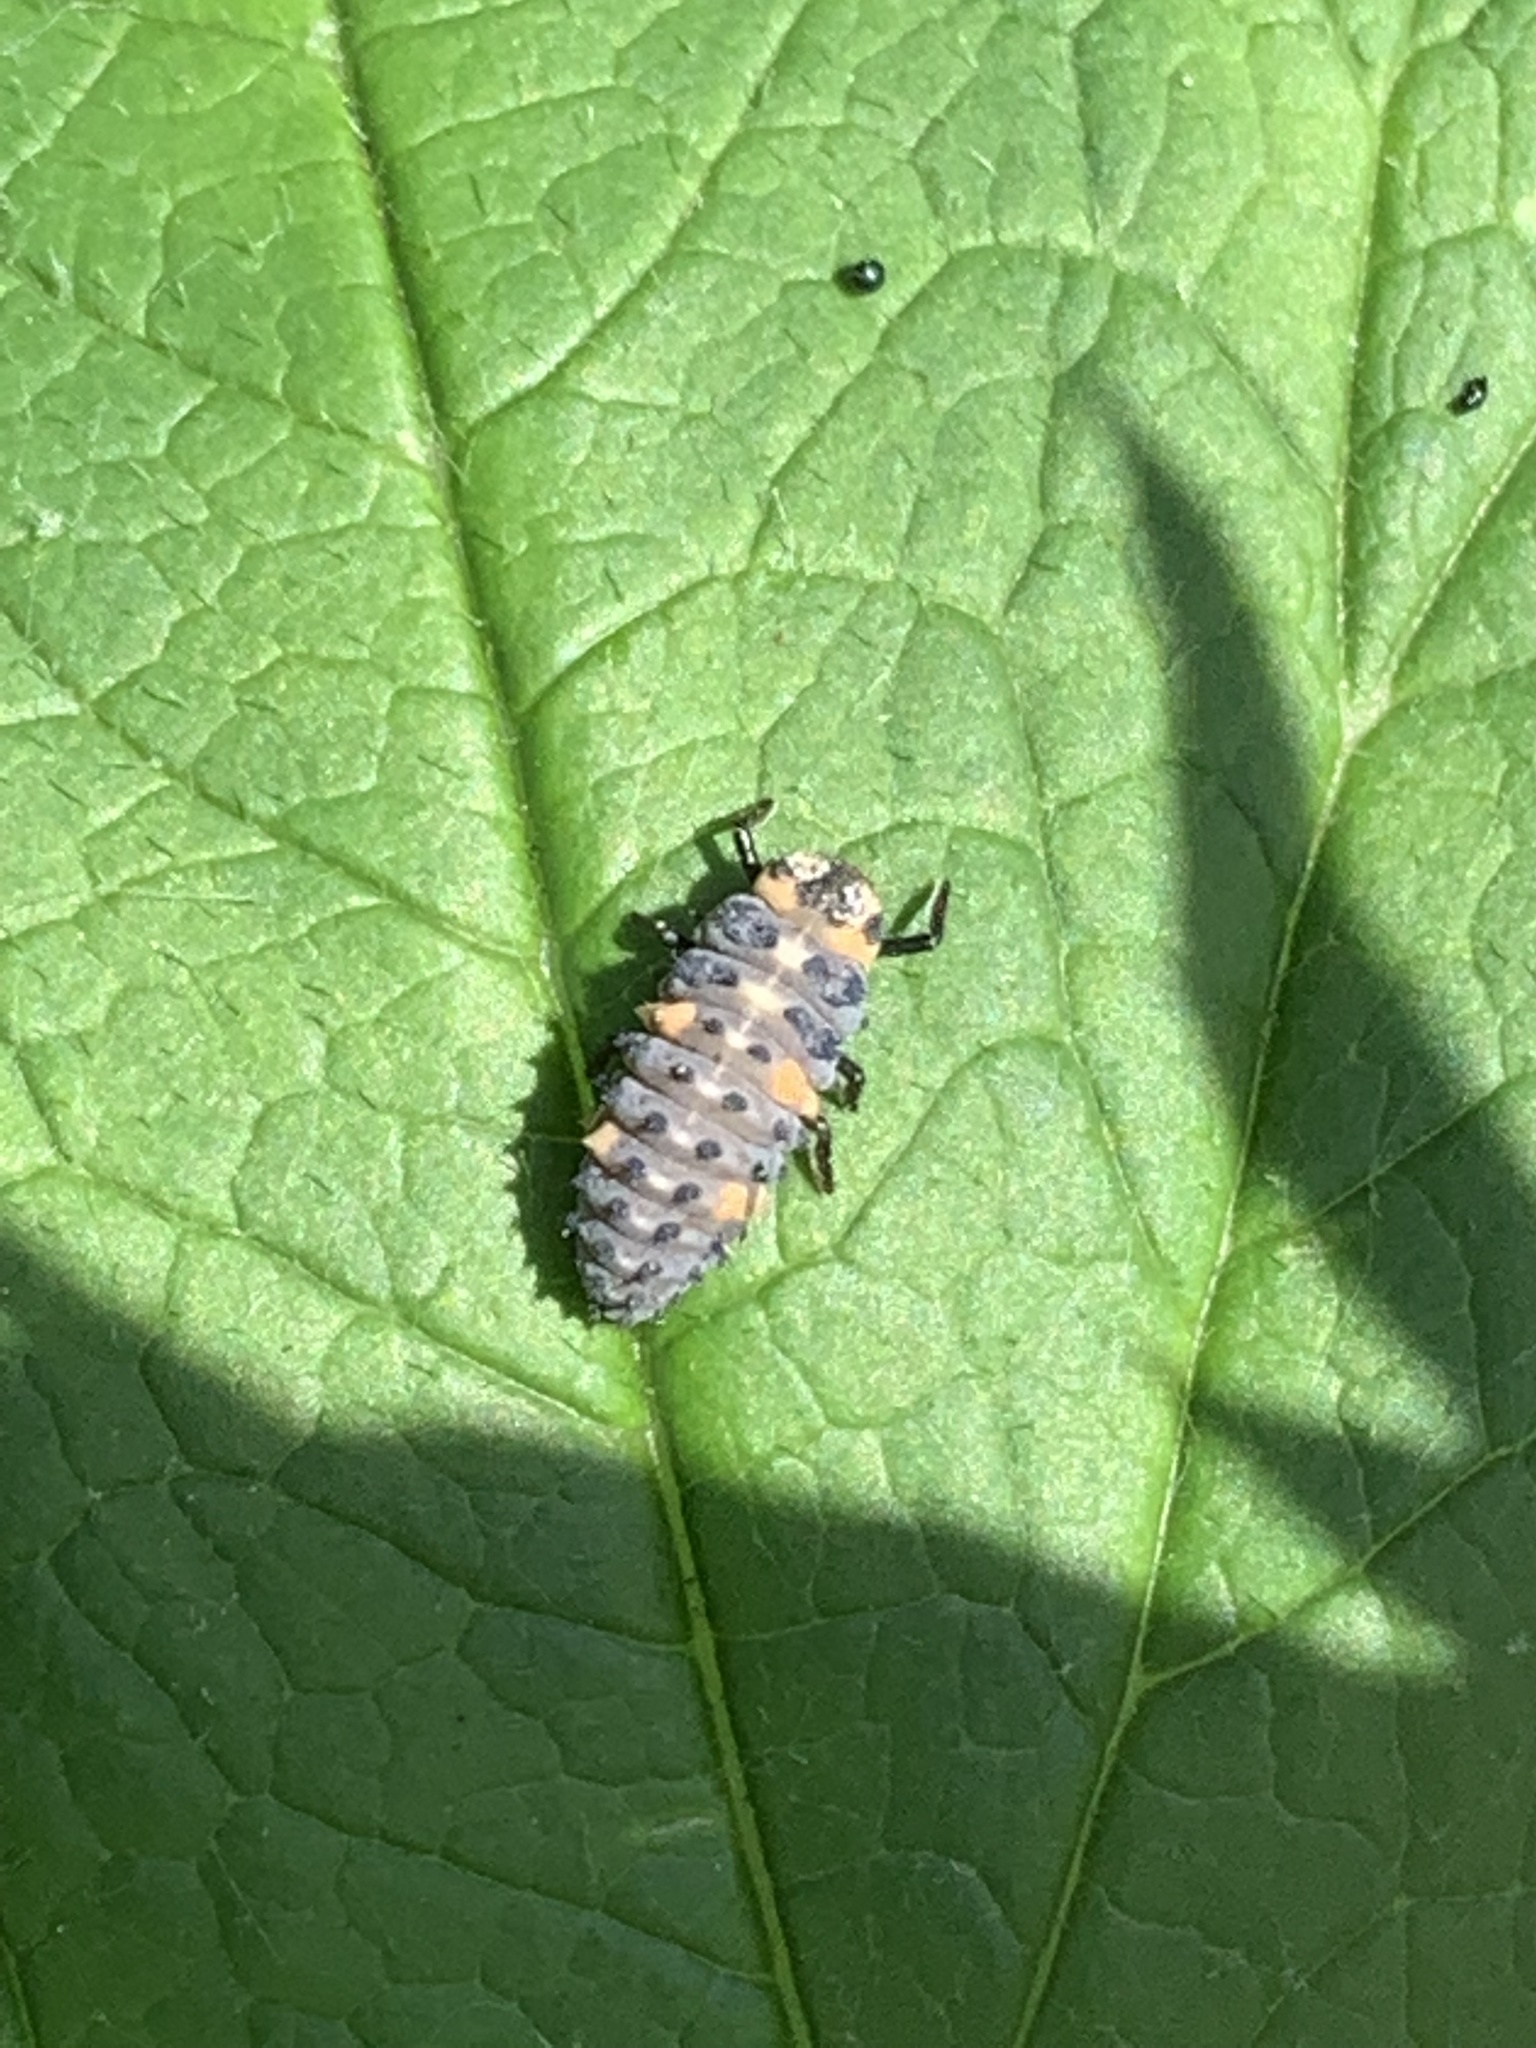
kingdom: Animalia
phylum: Arthropoda
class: Insecta
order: Coleoptera
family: Coccinellidae
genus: Coccinella
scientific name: Coccinella septempunctata
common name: Sevenspotted lady beetle
